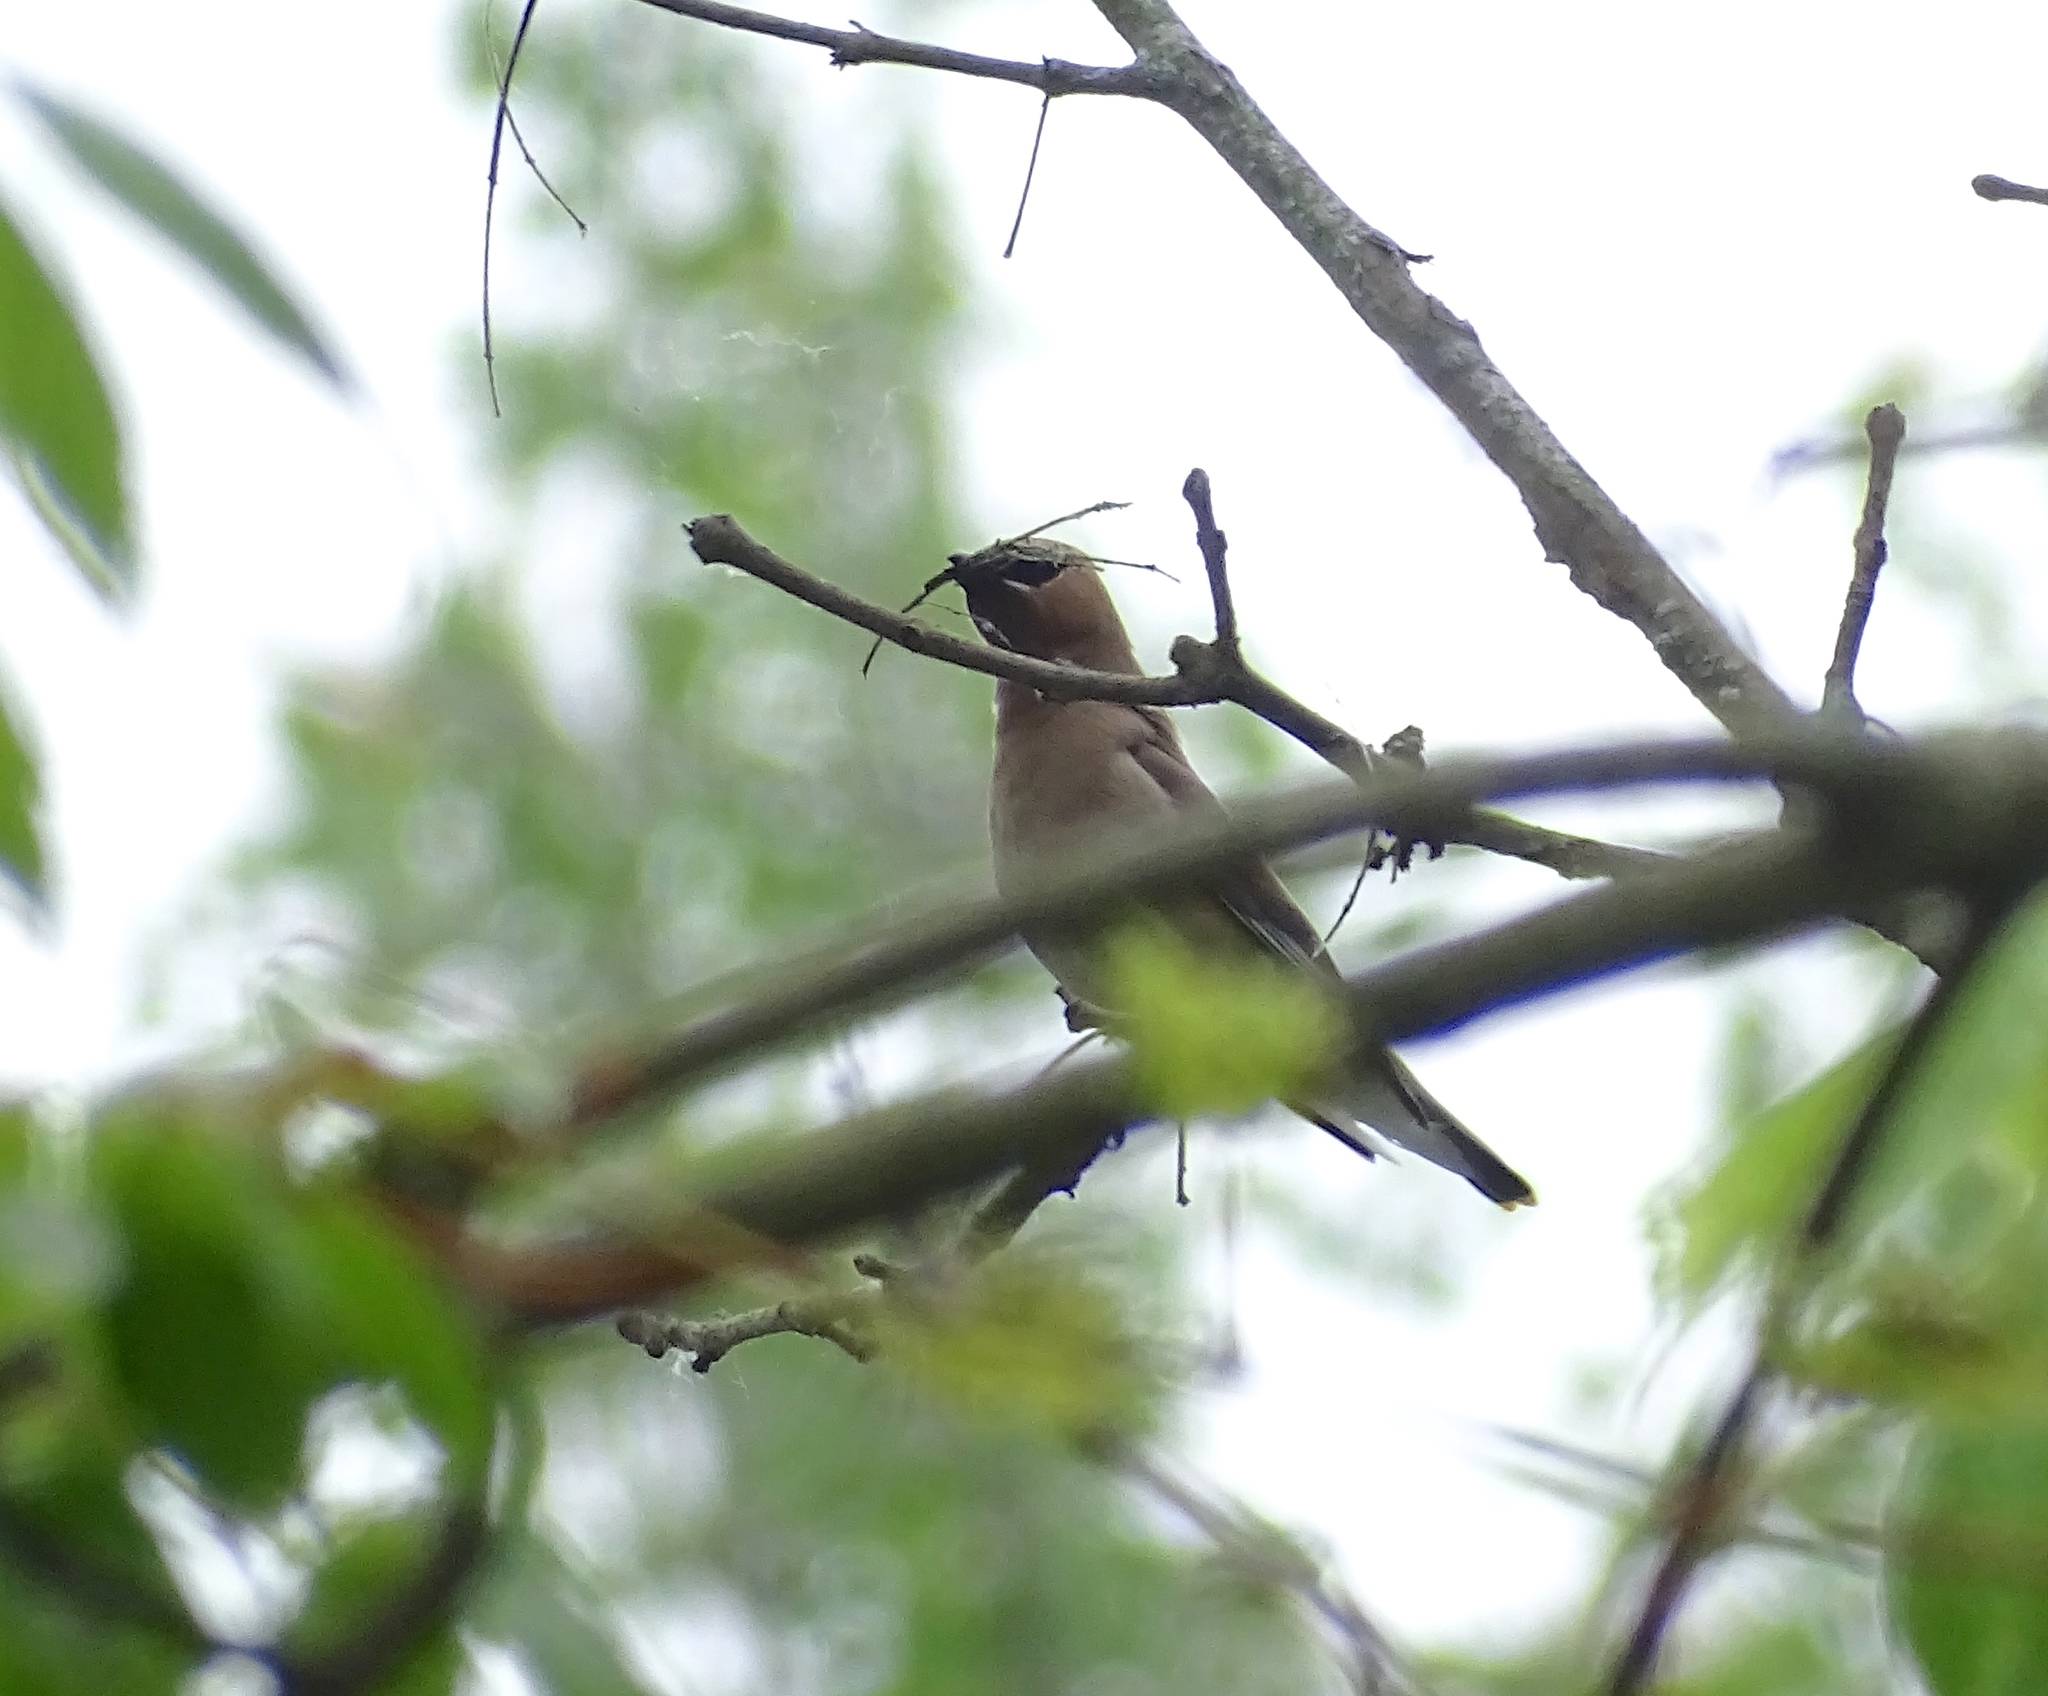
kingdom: Animalia
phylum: Chordata
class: Aves
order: Passeriformes
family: Bombycillidae
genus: Bombycilla
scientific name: Bombycilla cedrorum
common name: Cedar waxwing
